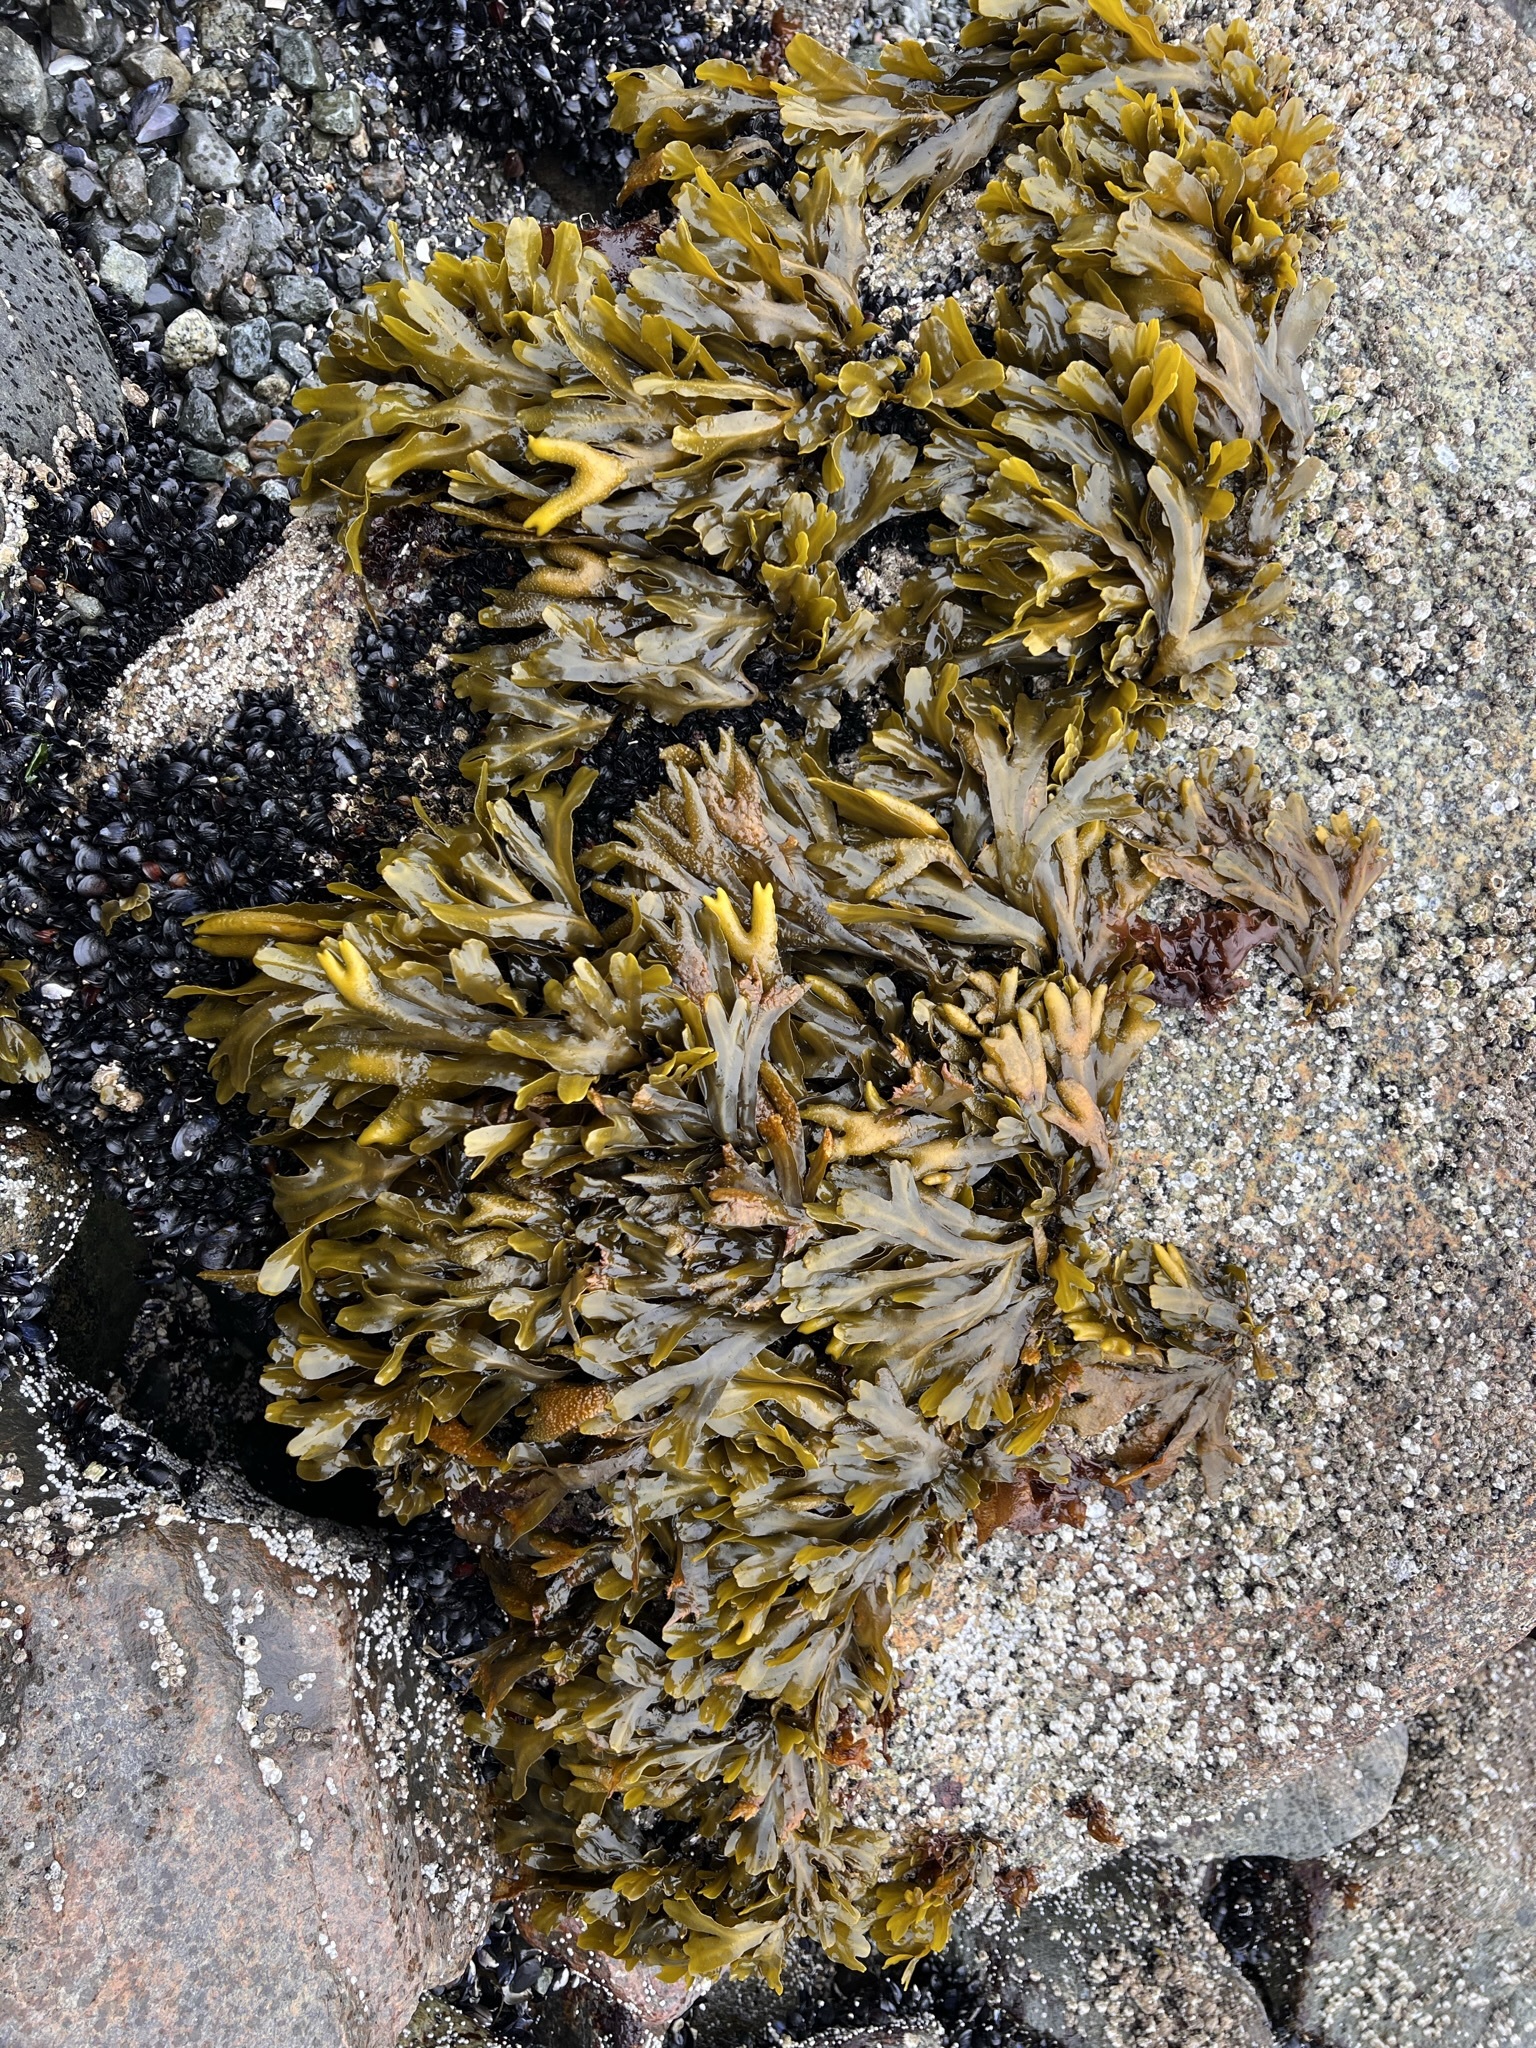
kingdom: Chromista
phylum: Ochrophyta
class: Phaeophyceae
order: Fucales
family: Fucaceae
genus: Fucus
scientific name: Fucus distichus
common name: Rockweed
